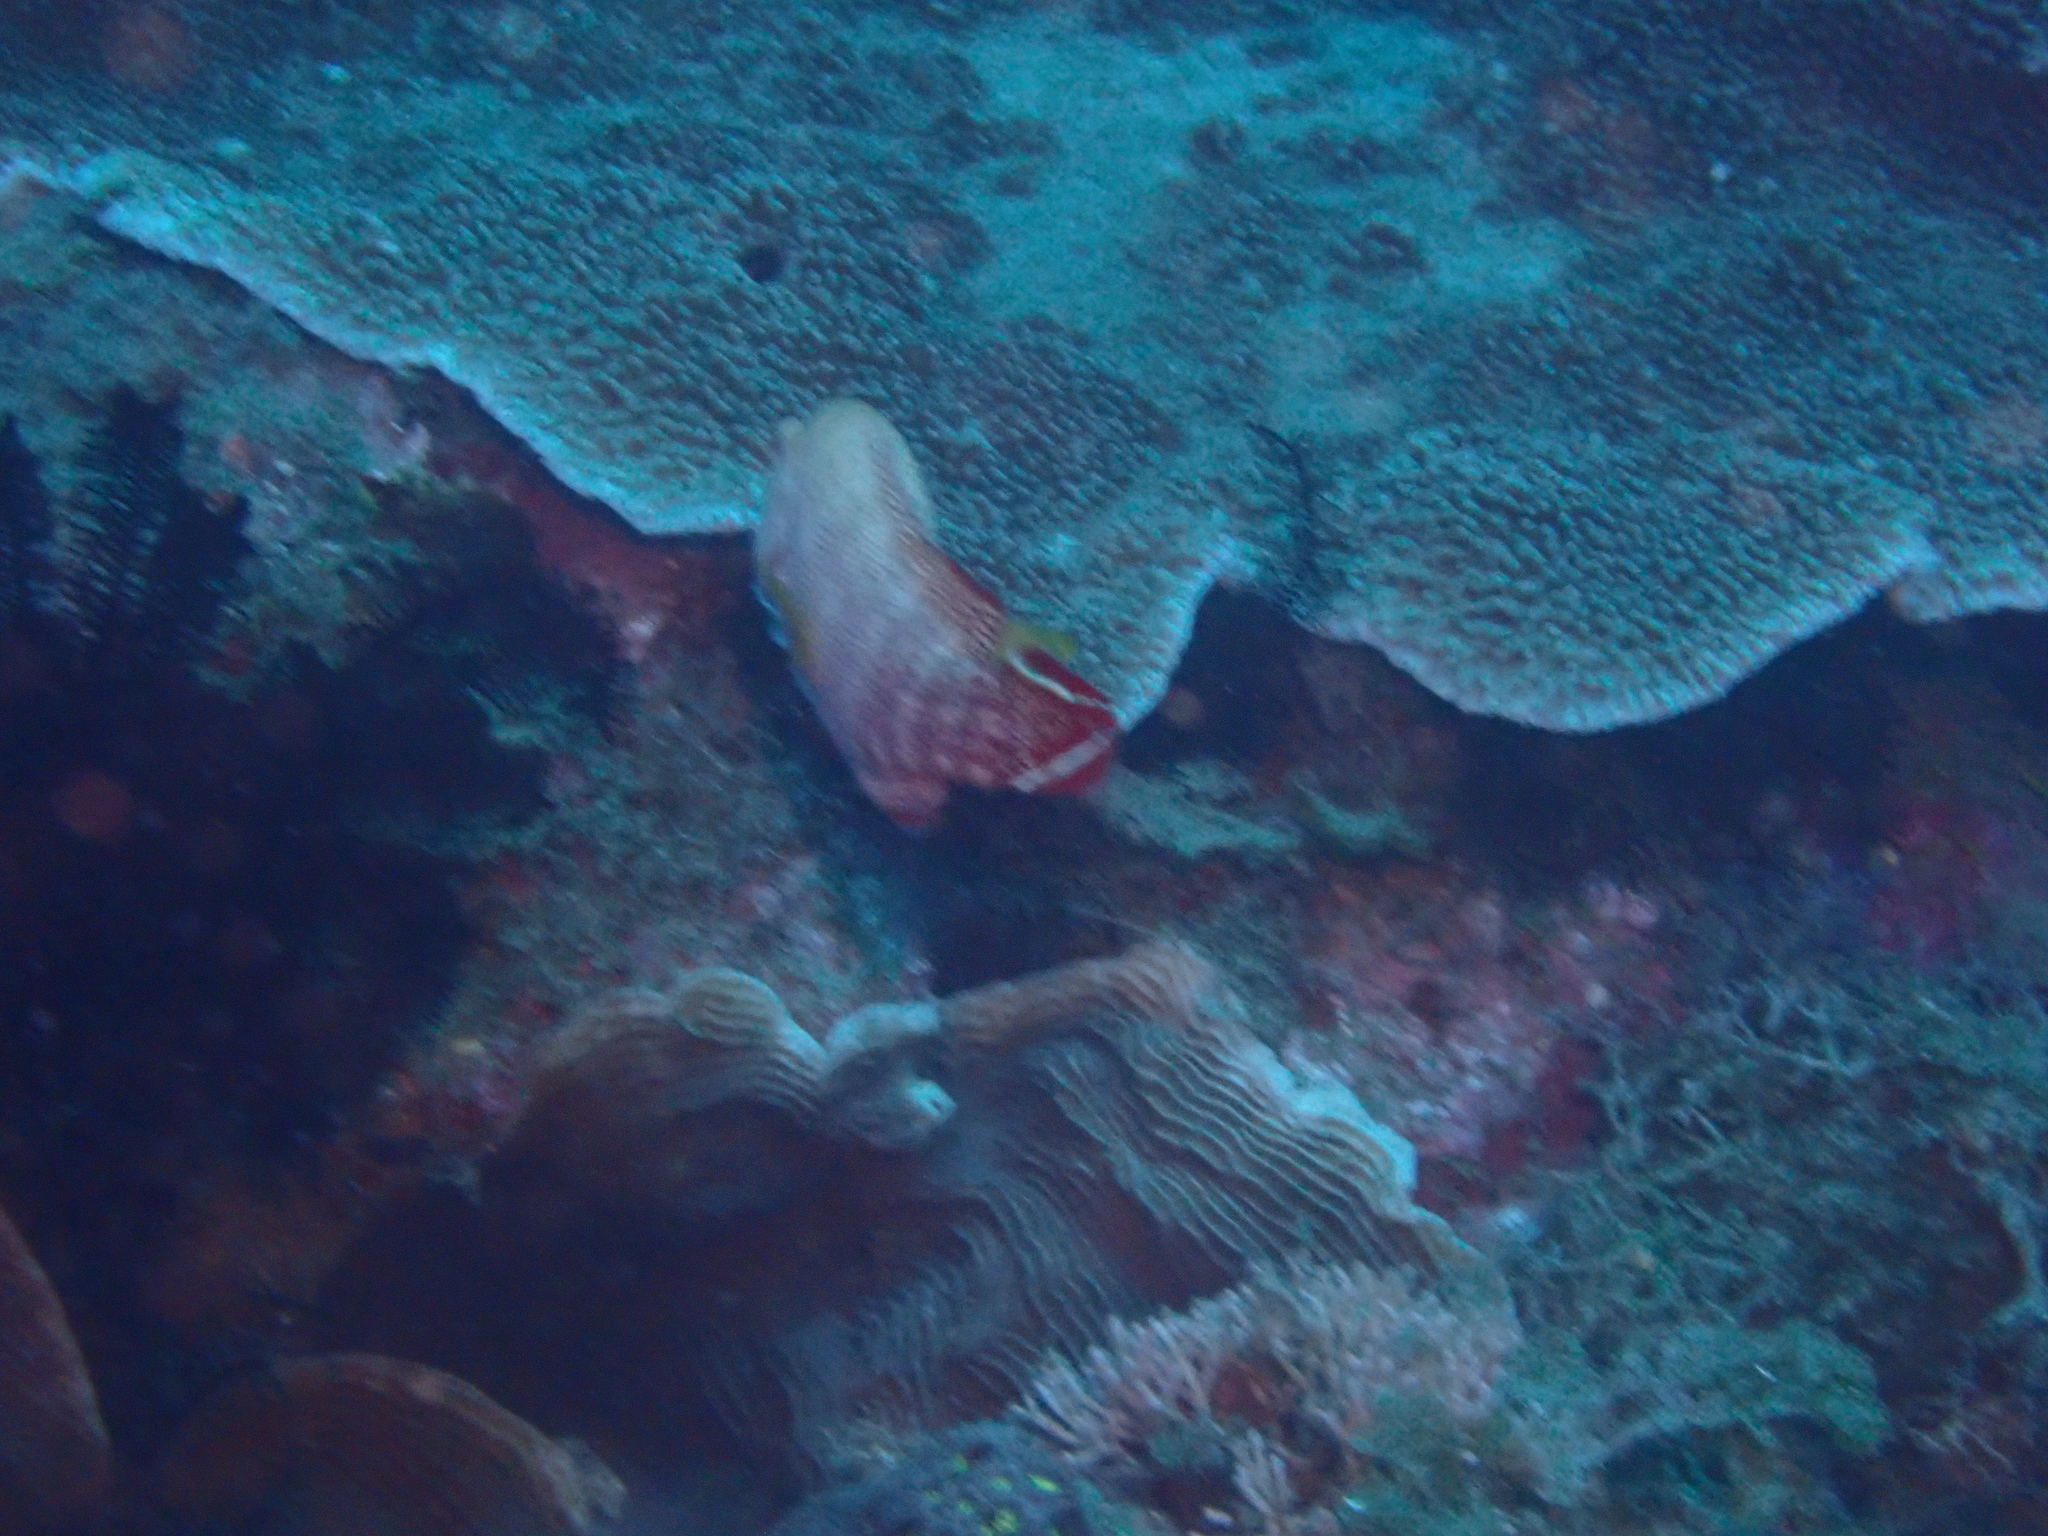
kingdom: Animalia
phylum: Chordata
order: Perciformes
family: Serranidae
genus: Cephalopholis
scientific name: Cephalopholis urodeta
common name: Darkfin hind
